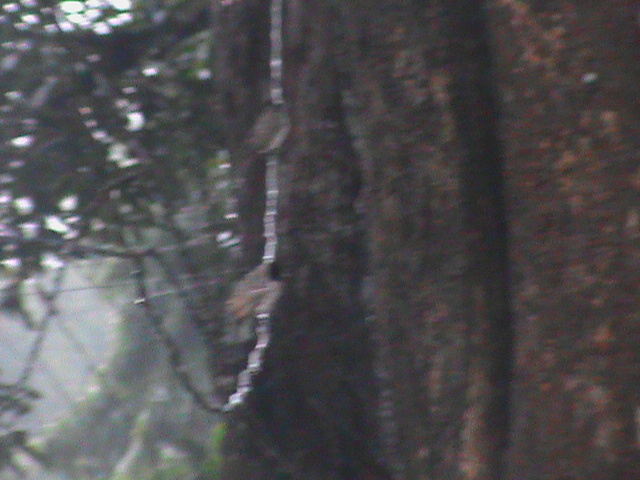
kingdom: Animalia
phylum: Chordata
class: Aves
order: Passeriformes
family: Pycnonotidae
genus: Pycnonotus
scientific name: Pycnonotus cafer
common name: Red-vented bulbul
